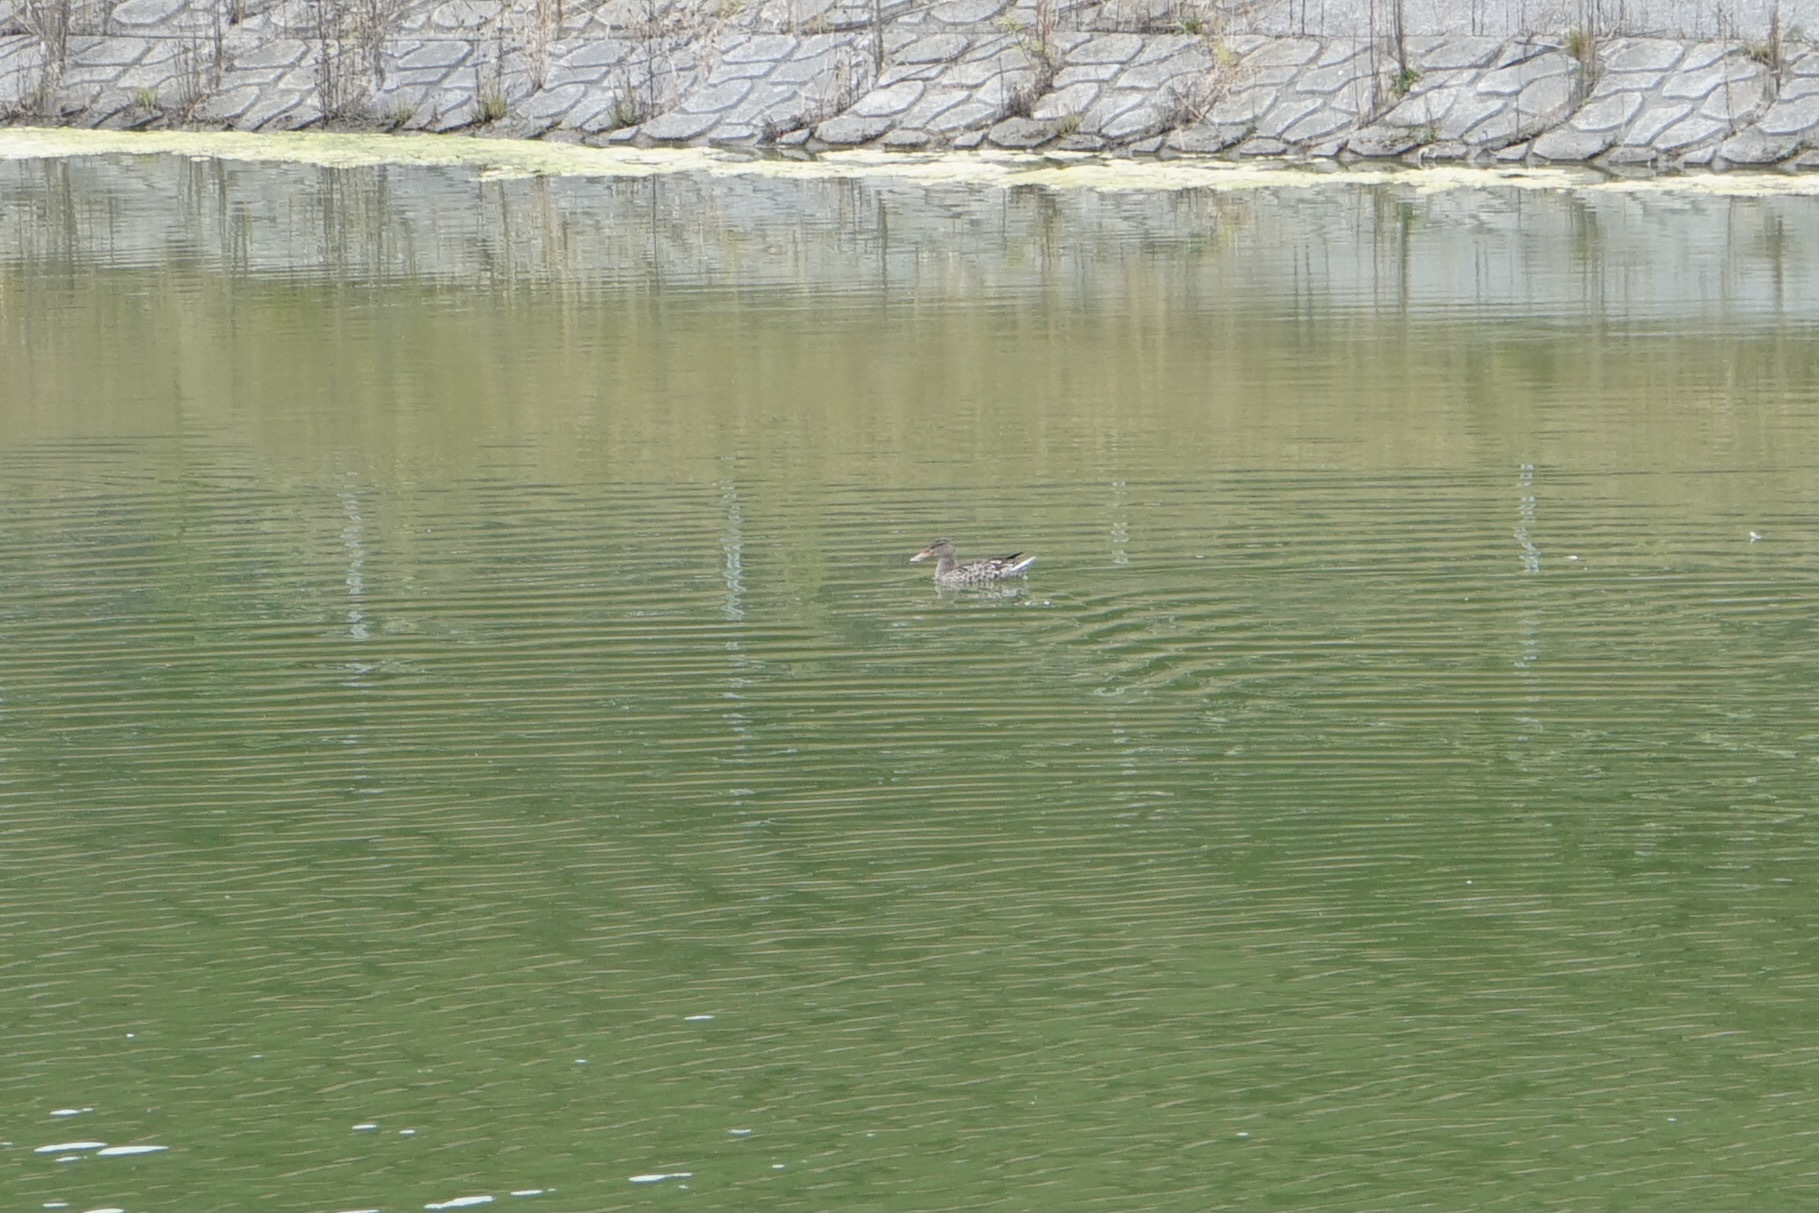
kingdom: Animalia
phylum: Chordata
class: Aves
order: Anseriformes
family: Anatidae
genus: Spatula
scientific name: Spatula clypeata
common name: Northern shoveler
